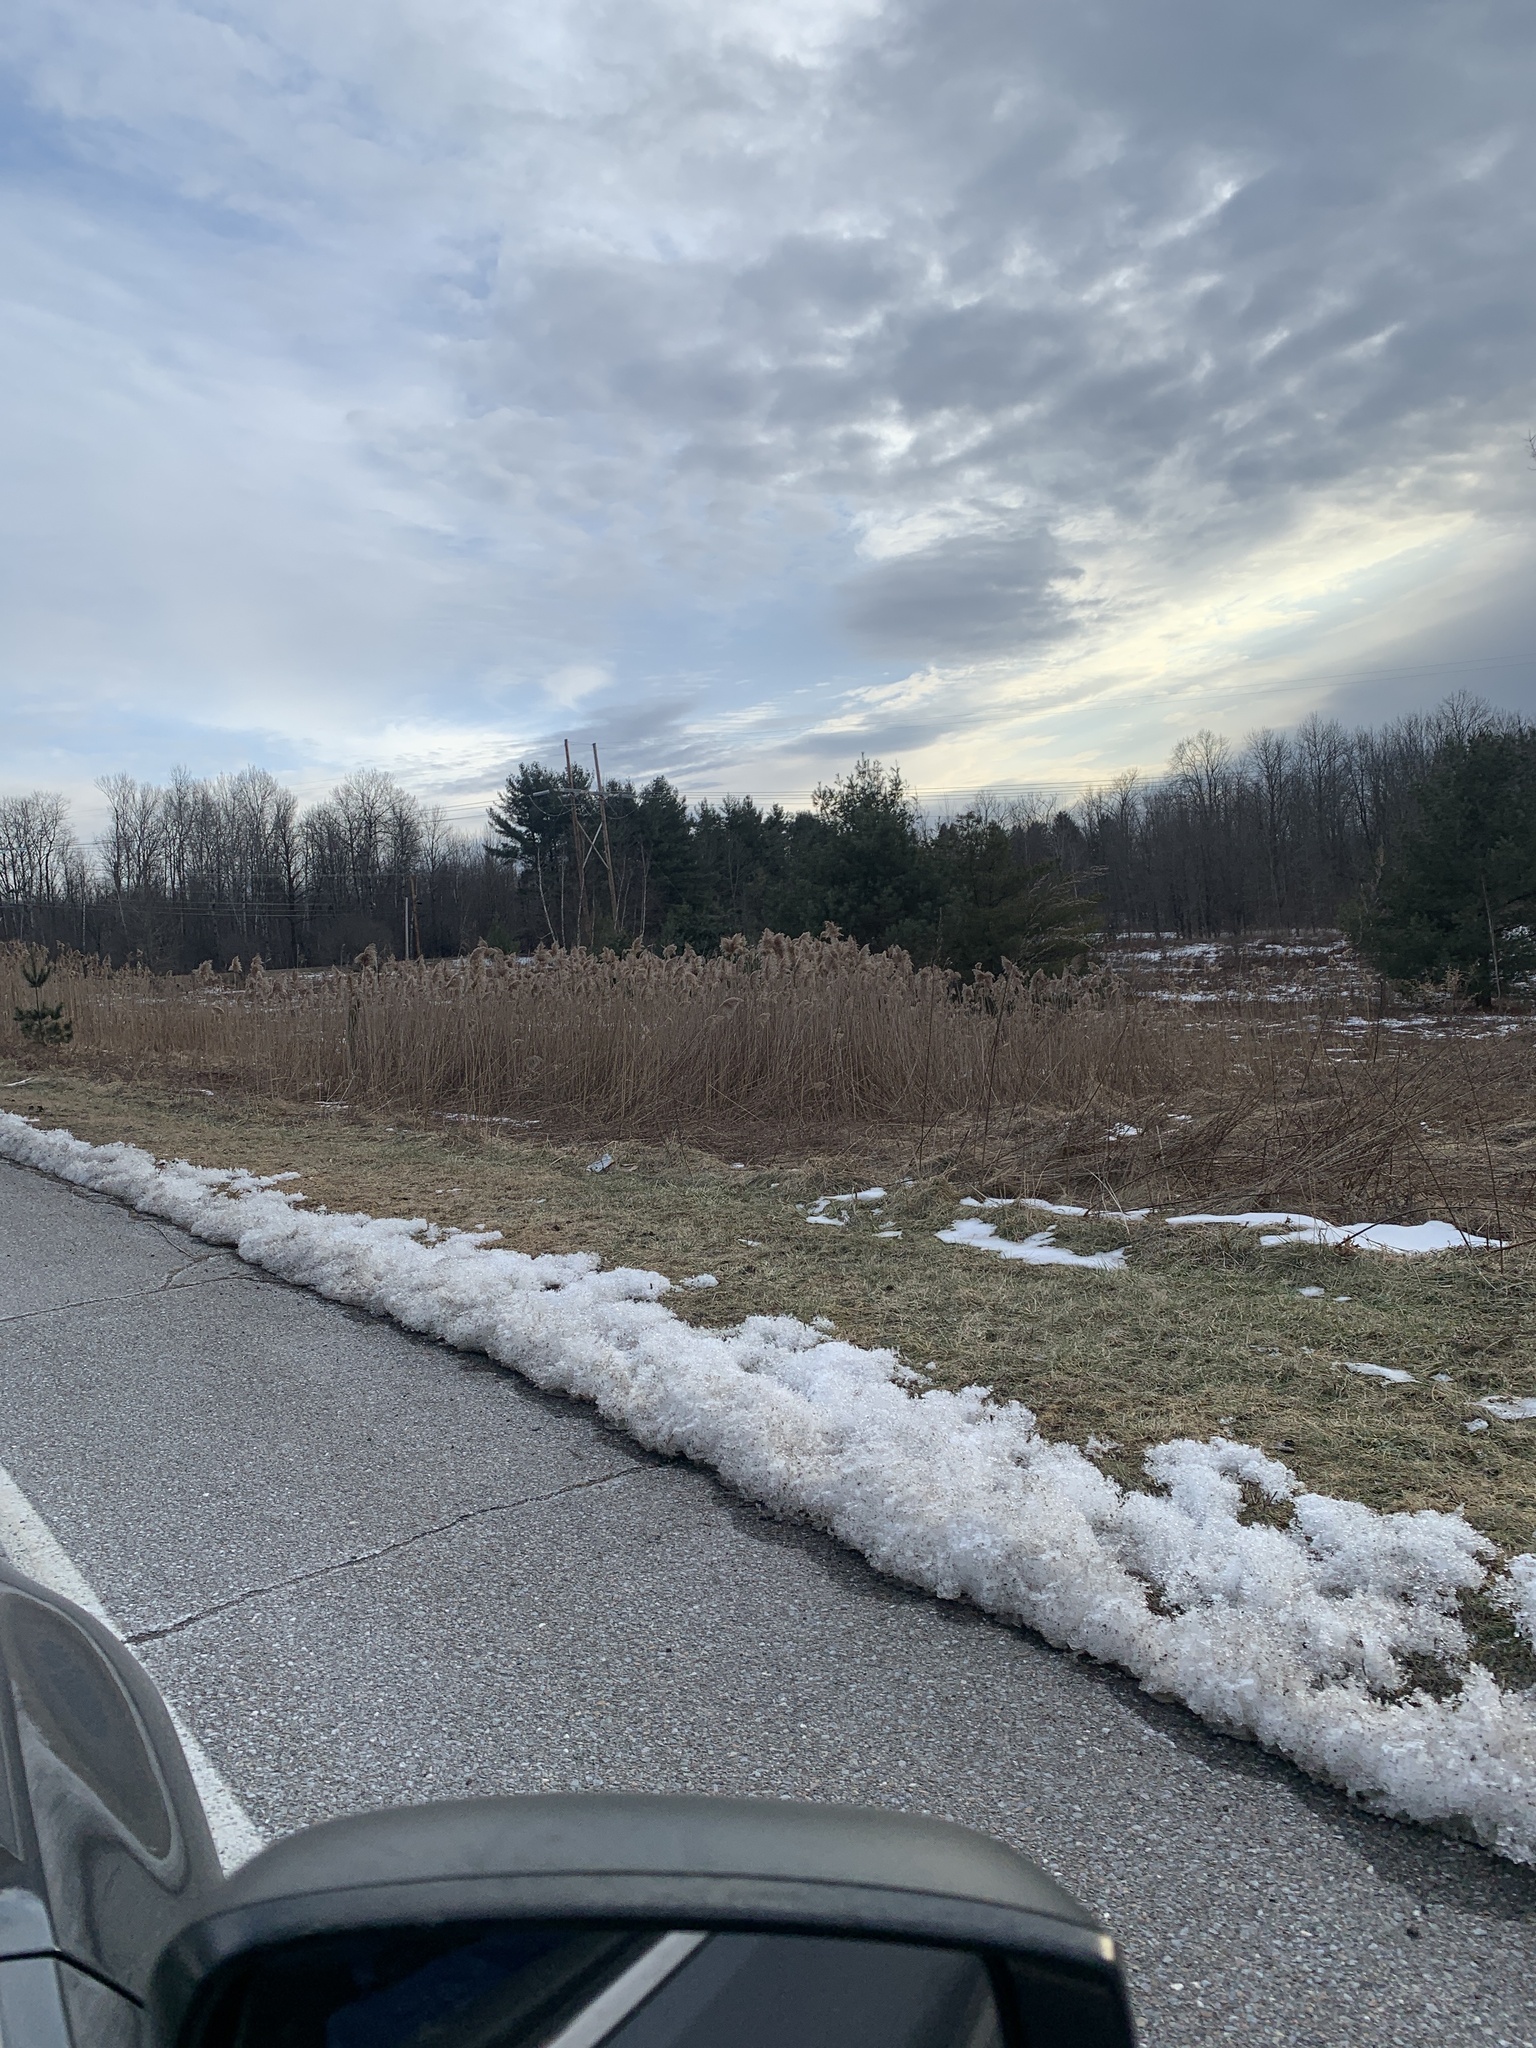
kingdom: Plantae
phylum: Tracheophyta
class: Liliopsida
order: Poales
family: Poaceae
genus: Phragmites
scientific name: Phragmites australis
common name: Common reed
